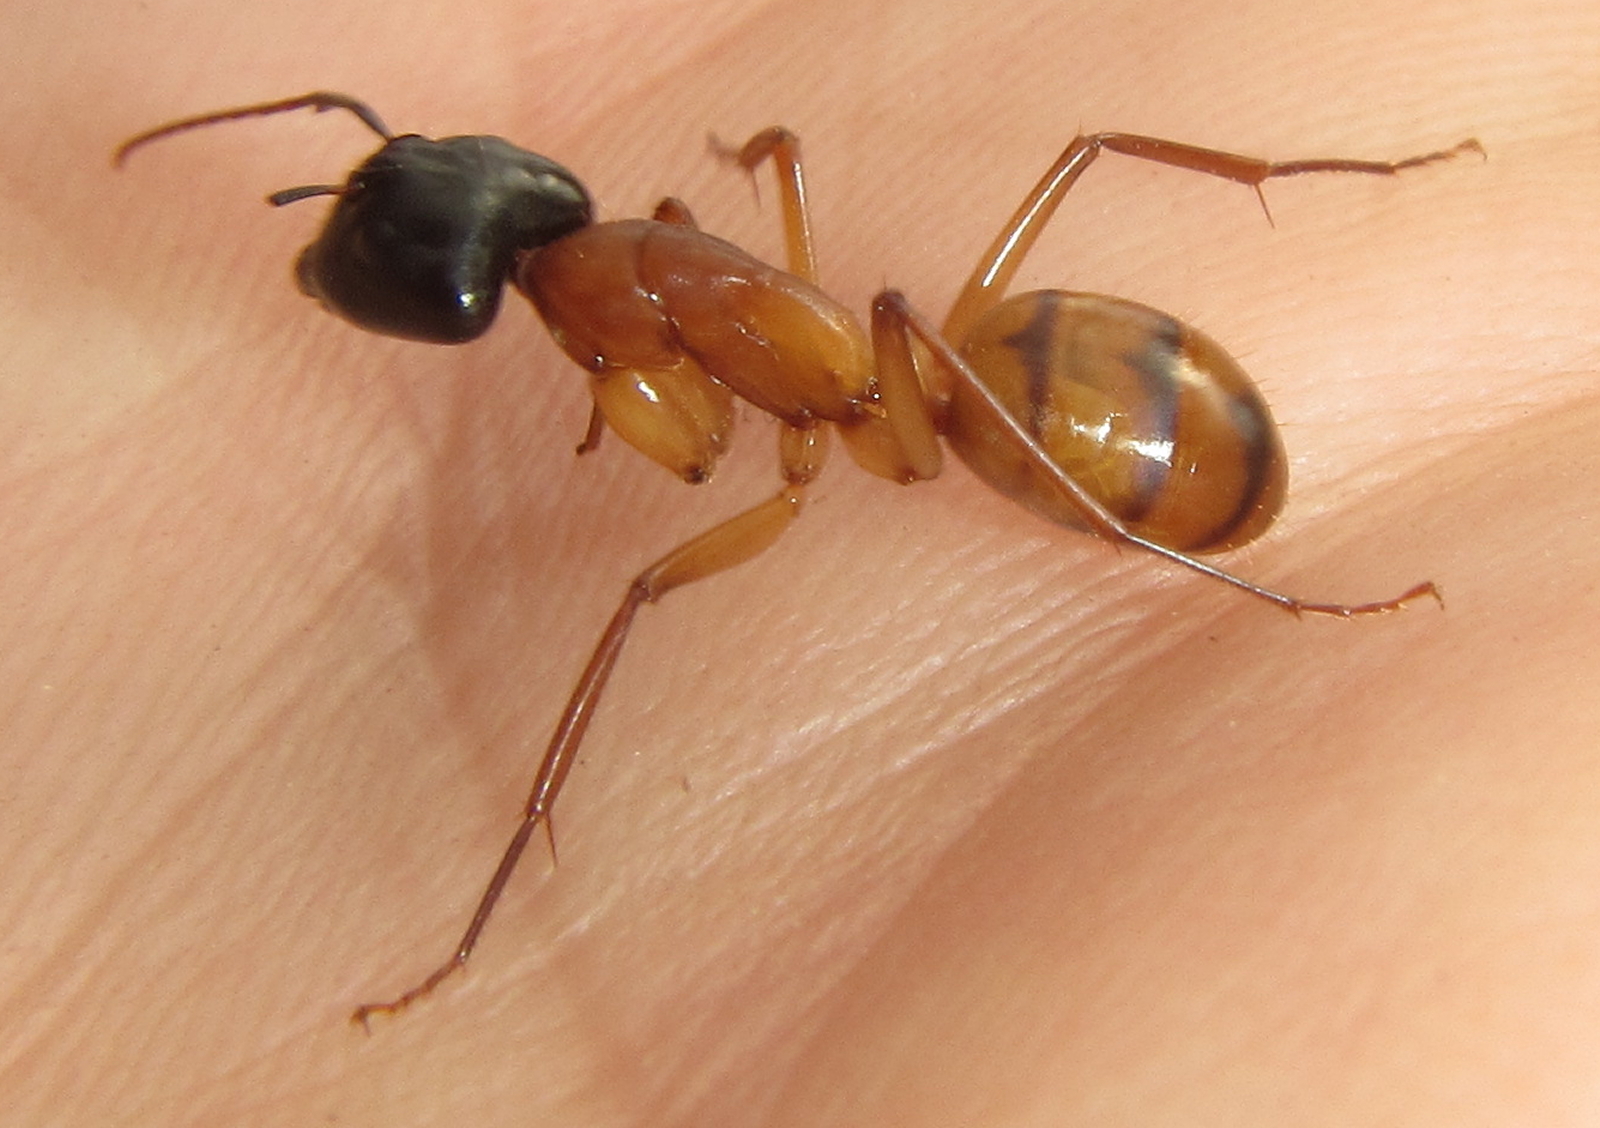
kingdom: Animalia
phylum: Arthropoda
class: Insecta
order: Hymenoptera
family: Formicidae
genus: Camponotus
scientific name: Camponotus havilandi
